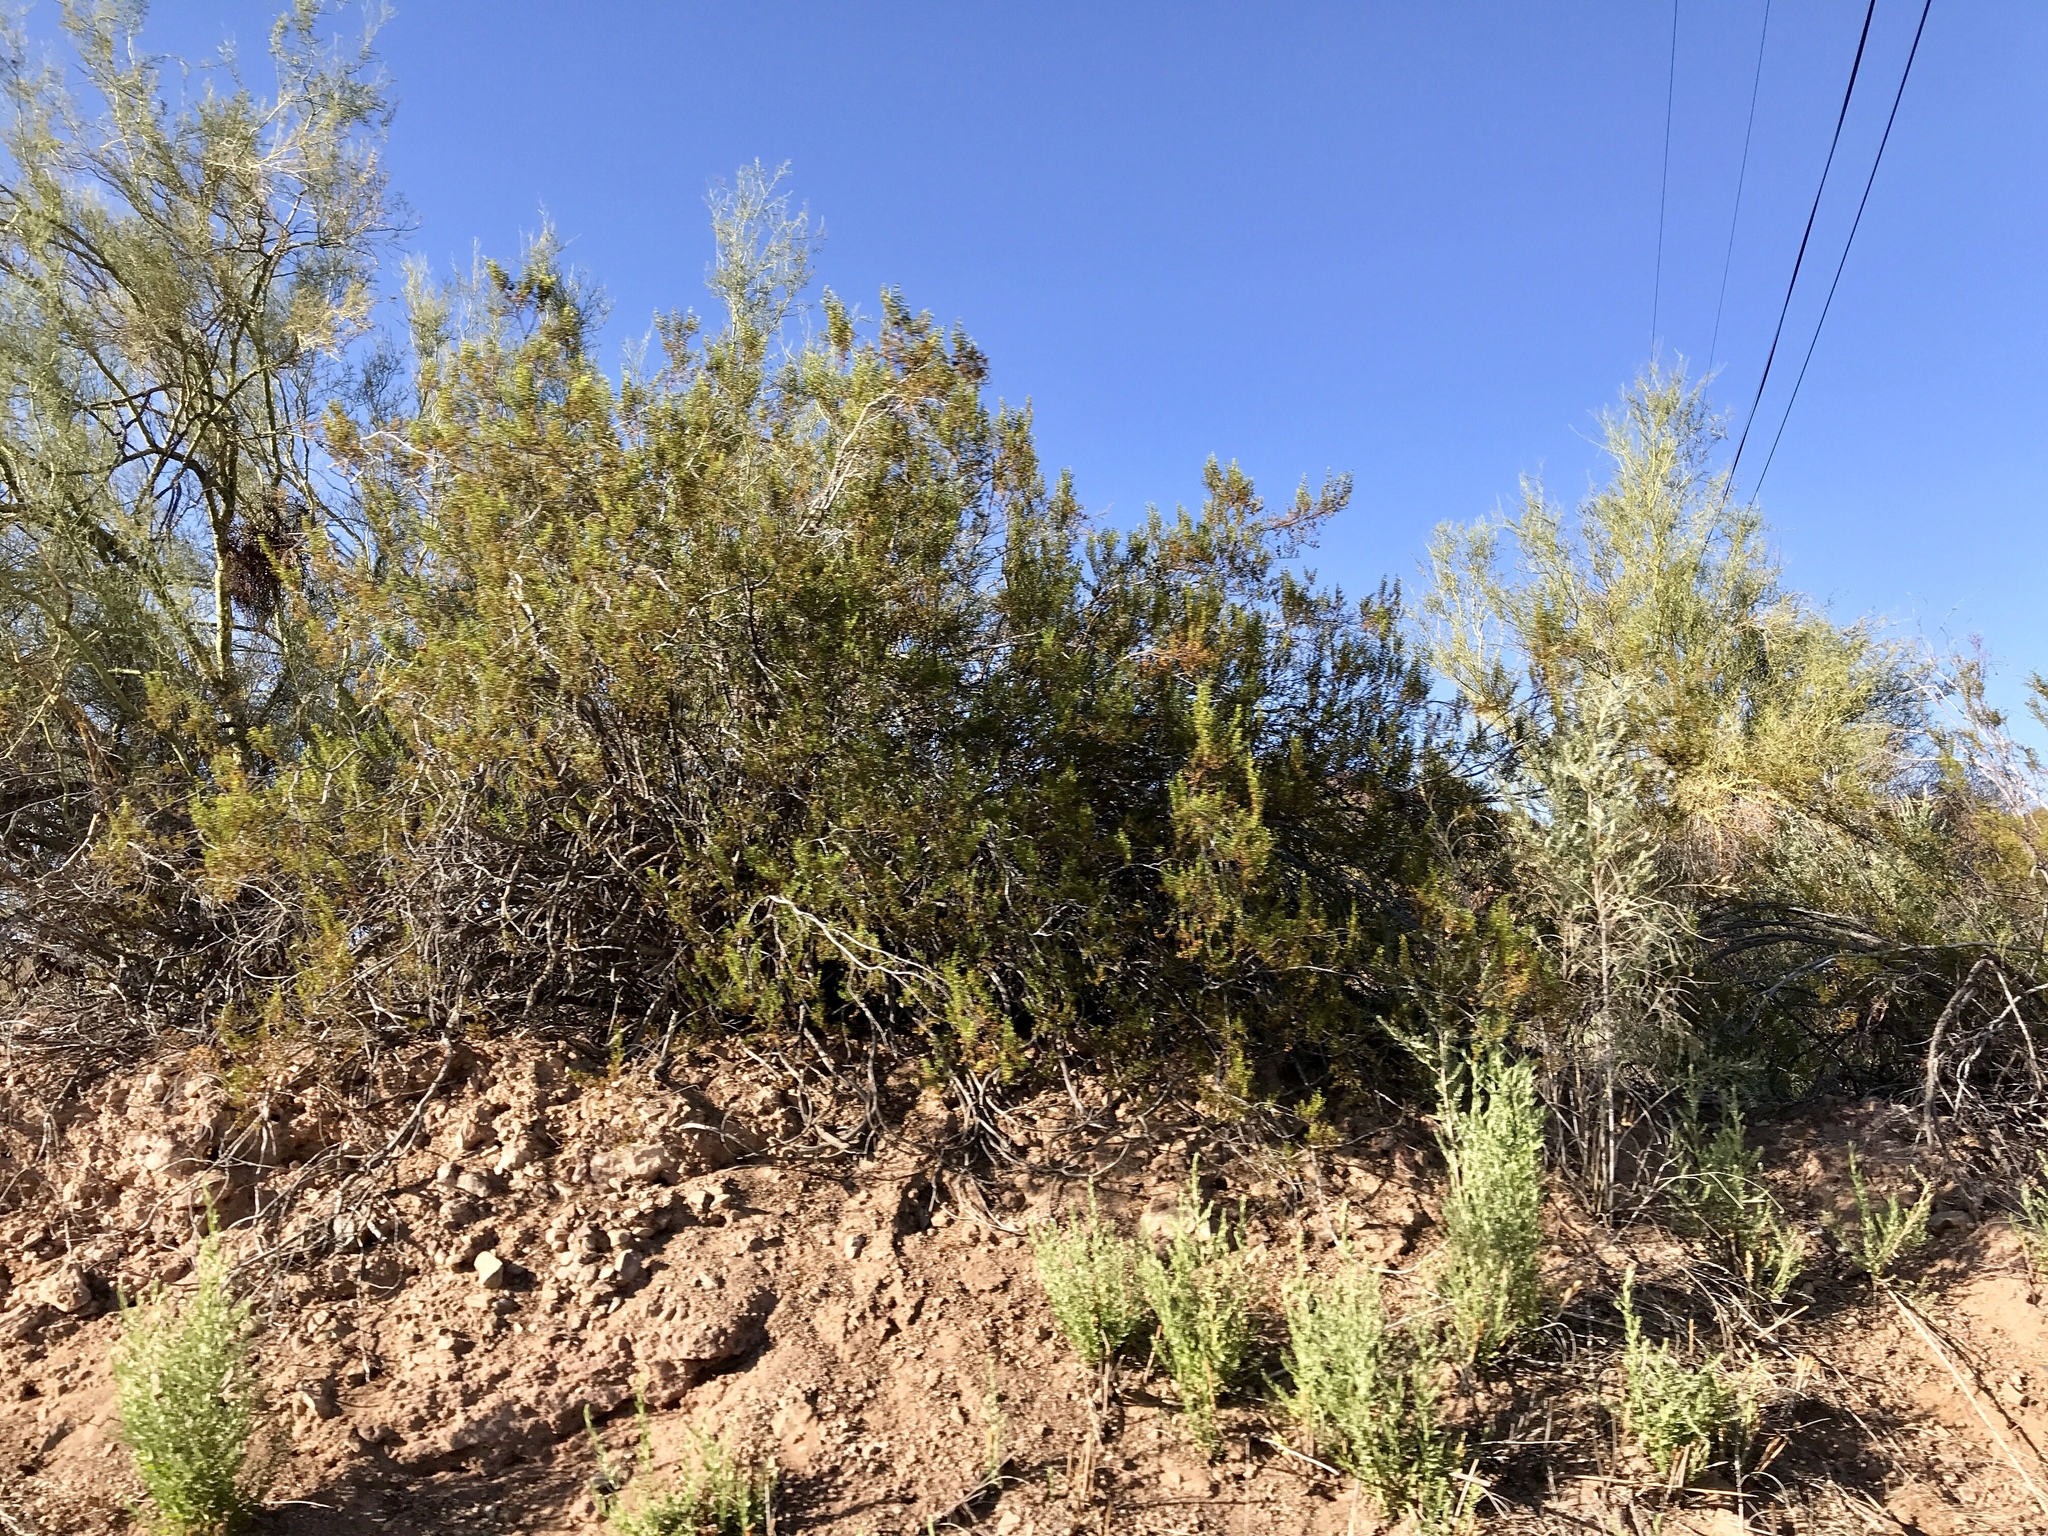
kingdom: Plantae
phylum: Tracheophyta
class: Magnoliopsida
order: Zygophyllales
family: Zygophyllaceae
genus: Larrea
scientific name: Larrea tridentata
